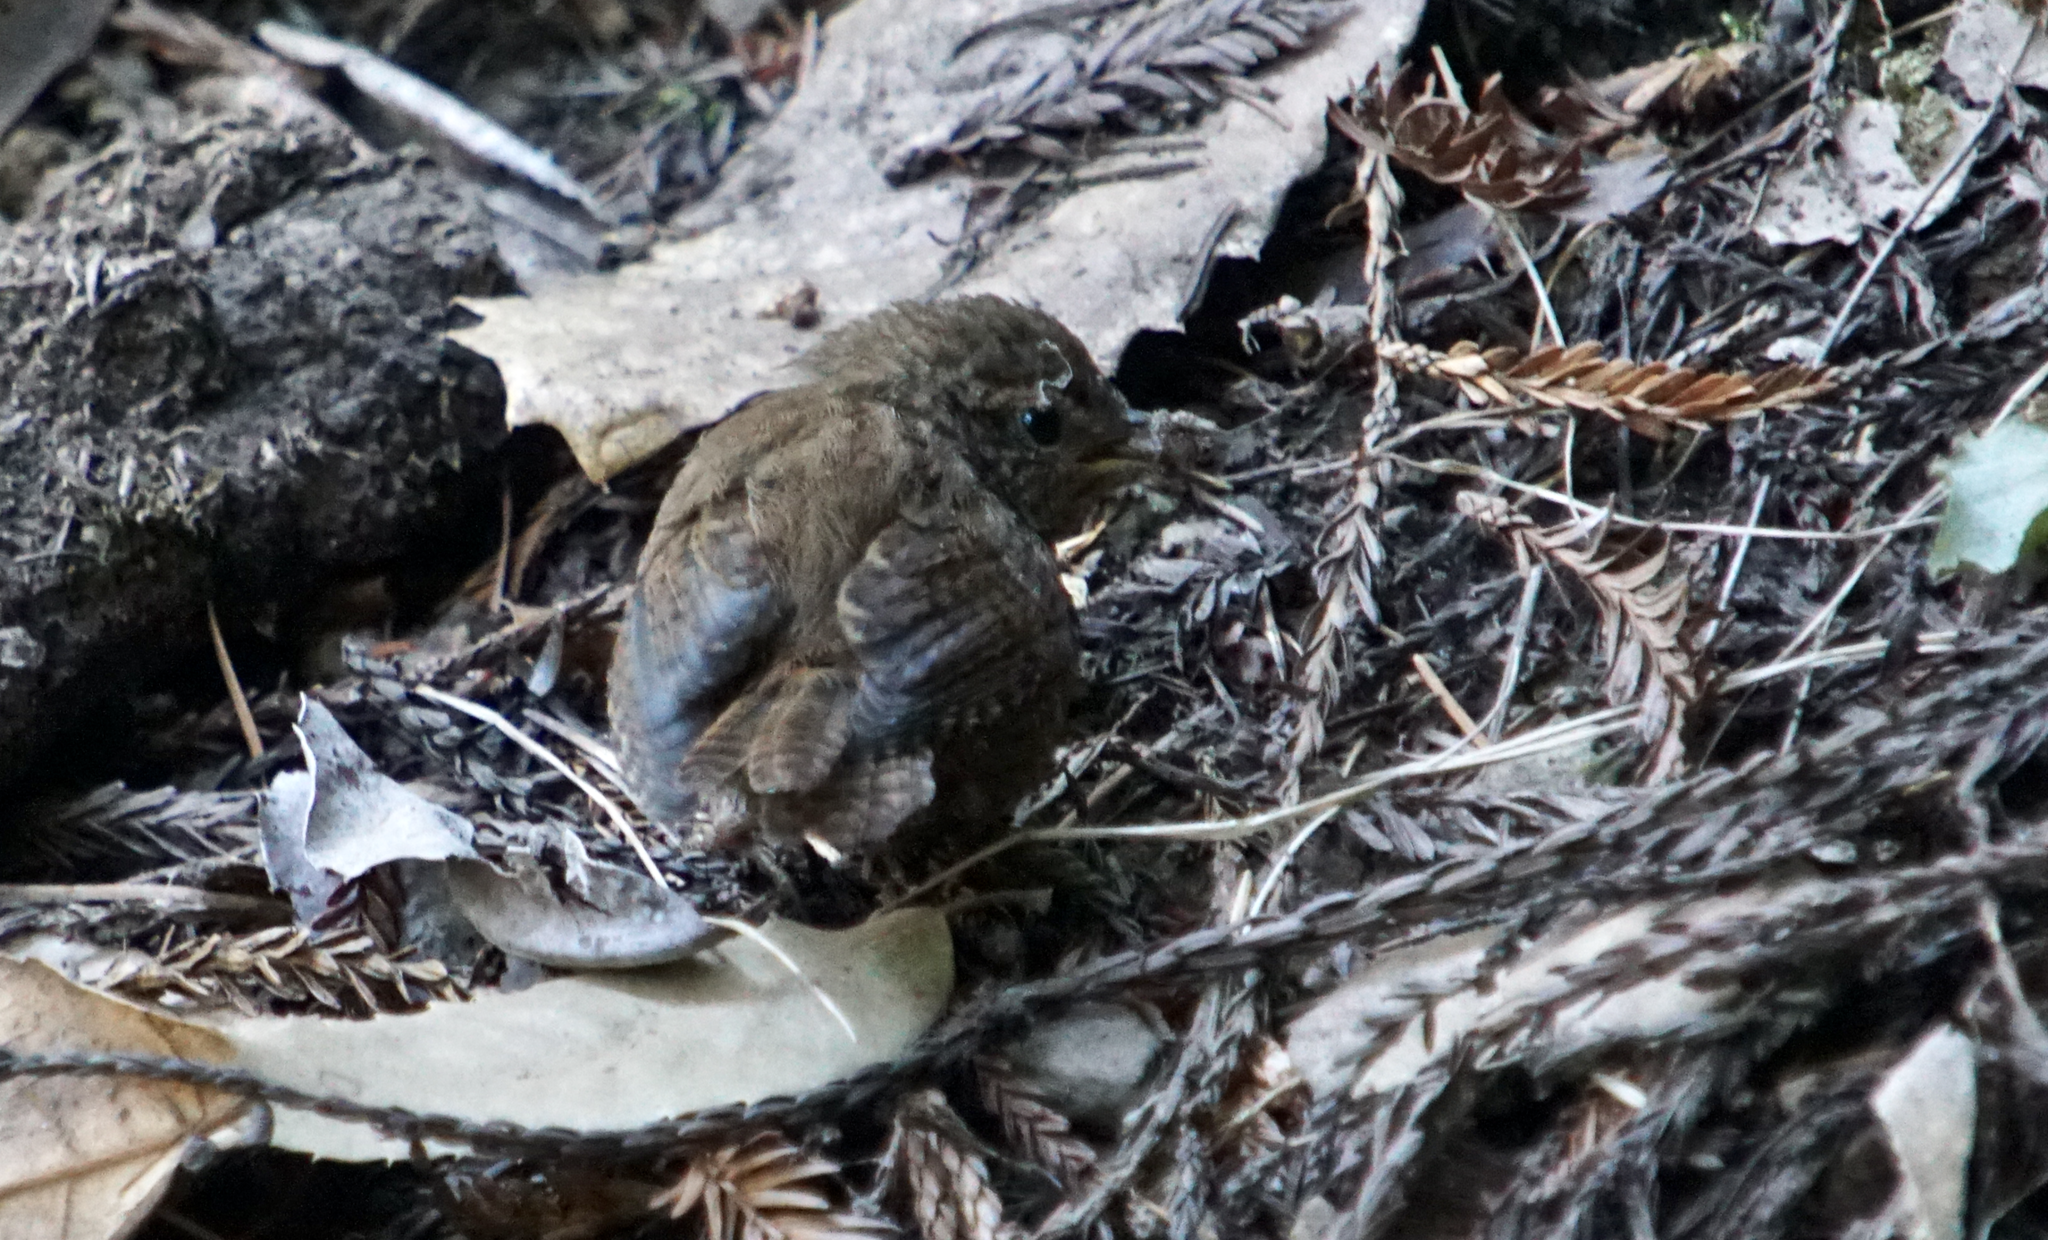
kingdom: Animalia
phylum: Chordata
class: Aves
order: Passeriformes
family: Troglodytidae
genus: Troglodytes
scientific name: Troglodytes pacificus
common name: Pacific wren
